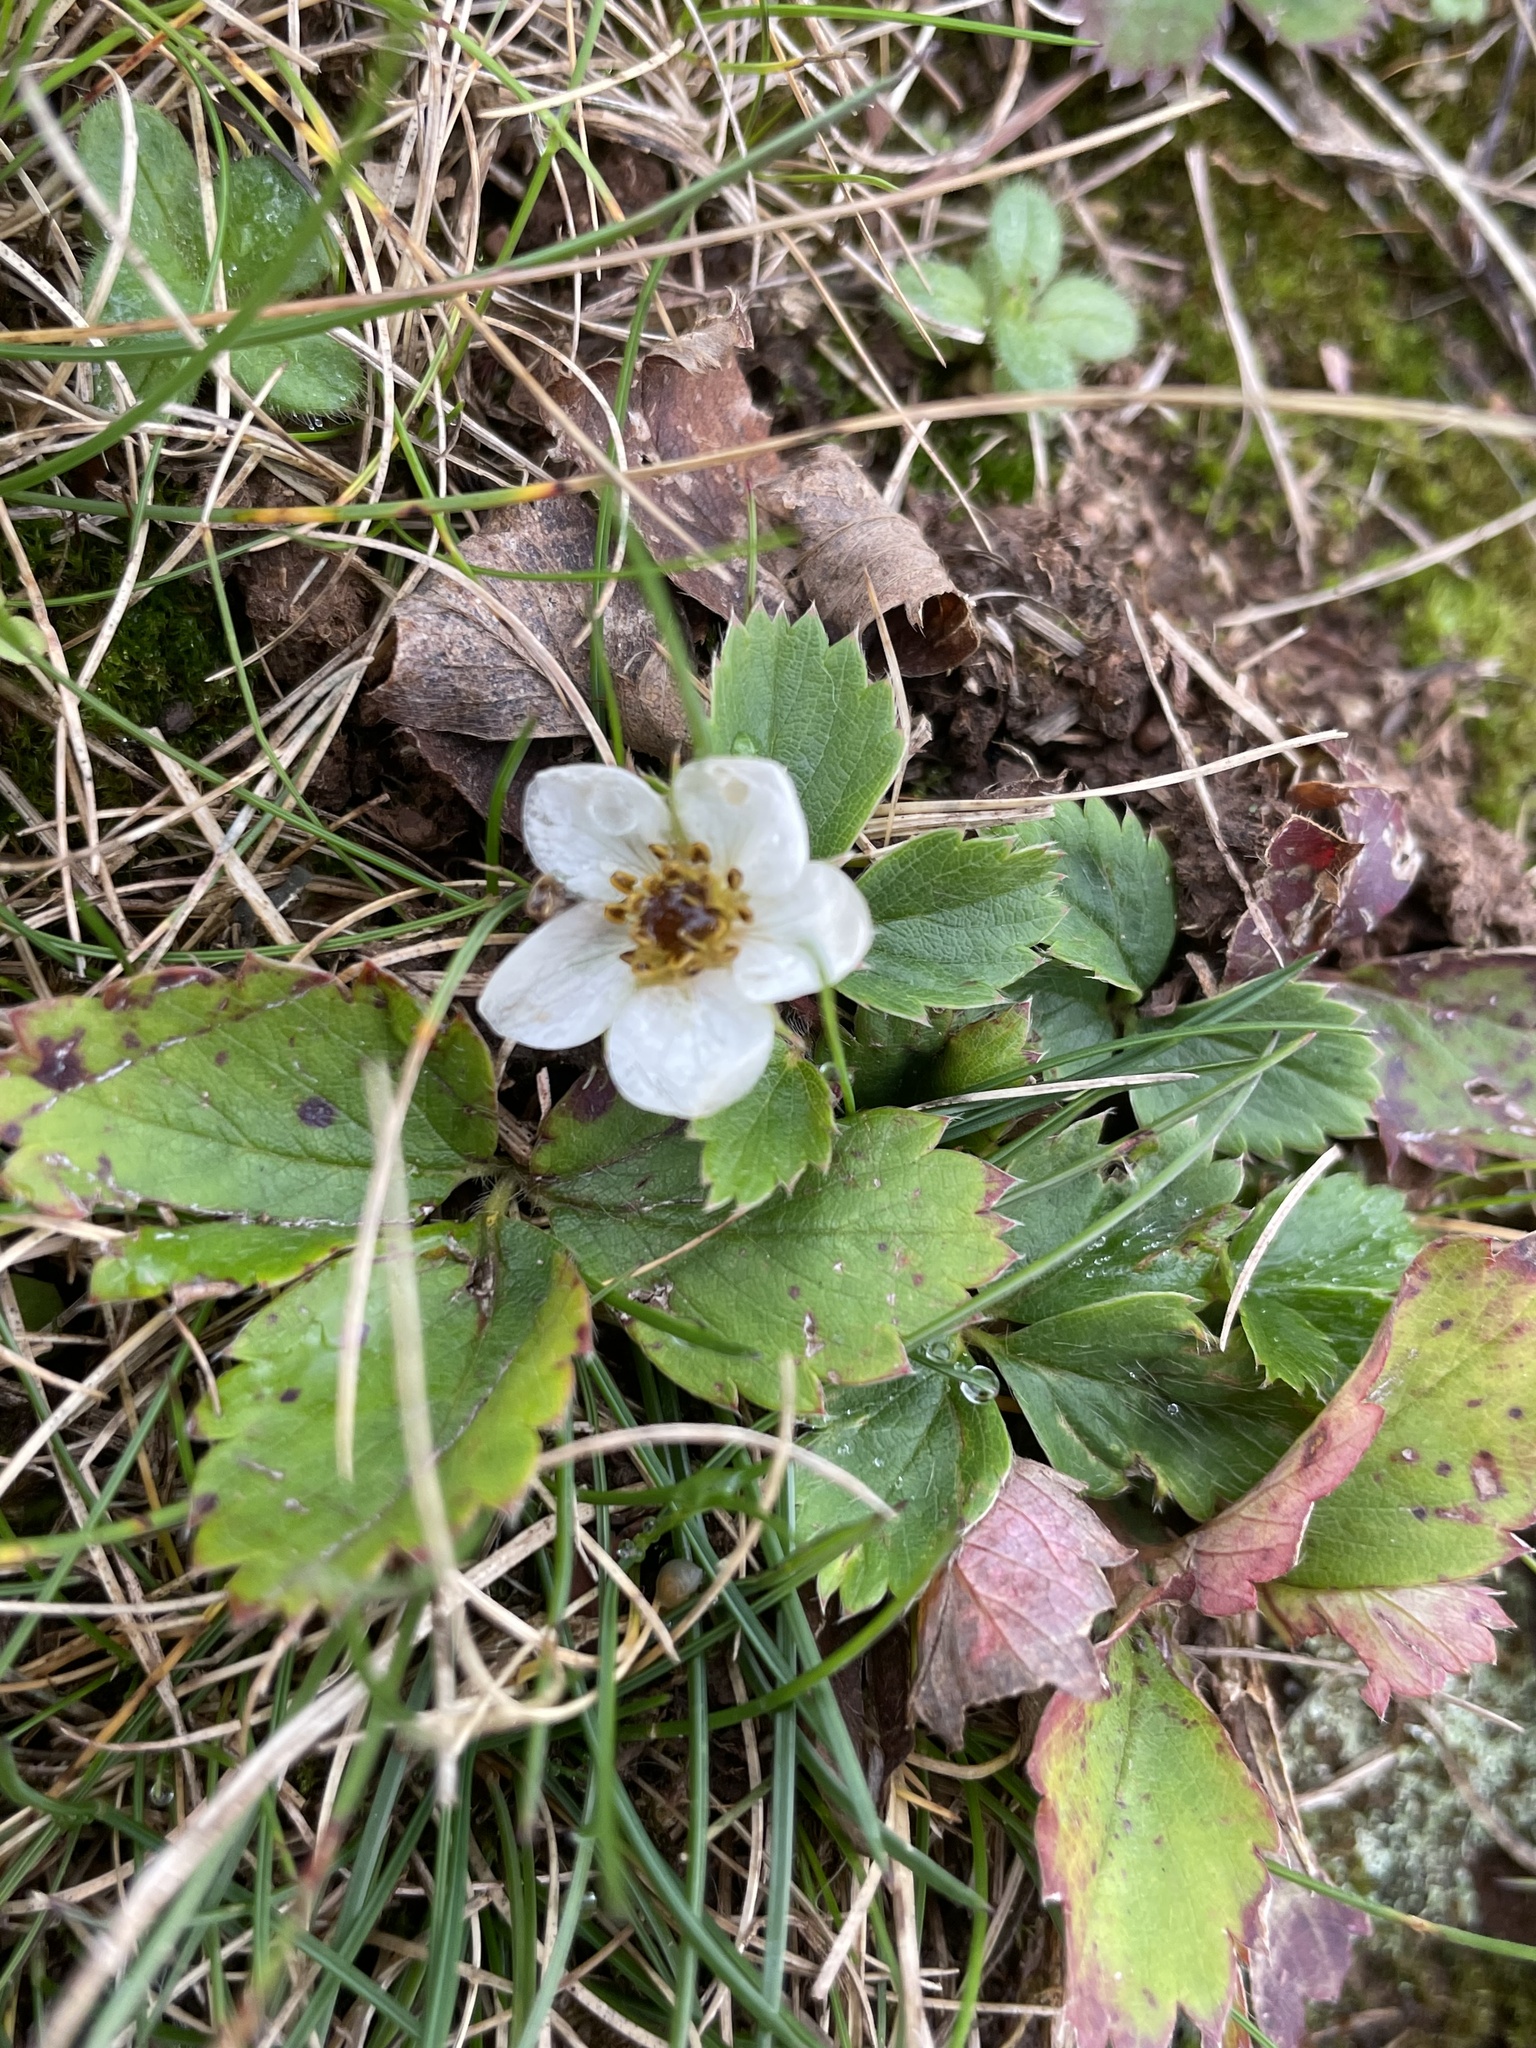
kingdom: Plantae
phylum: Tracheophyta
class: Magnoliopsida
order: Rosales
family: Rosaceae
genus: Fragaria
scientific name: Fragaria virginiana
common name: Thickleaved wild strawberry
